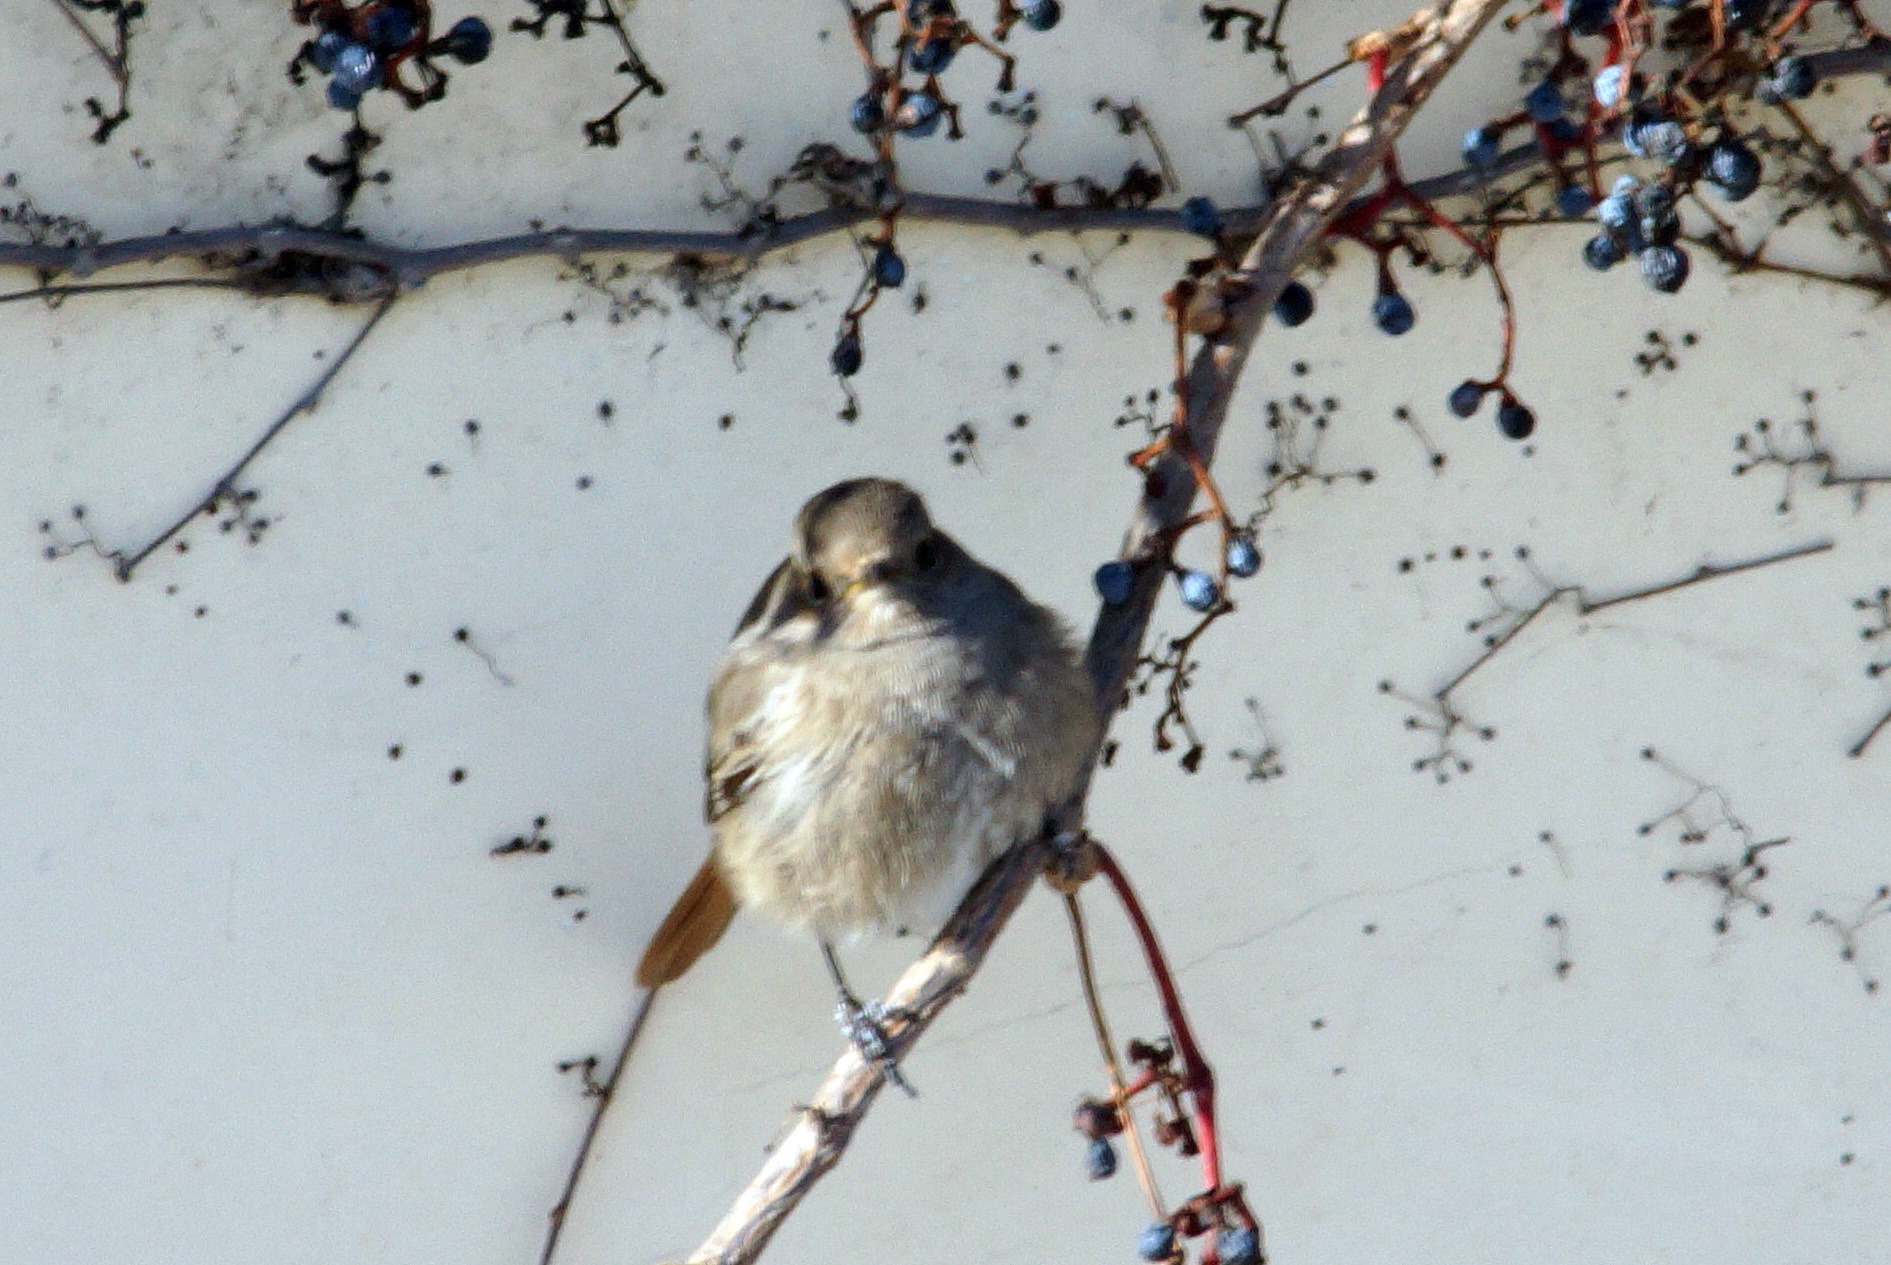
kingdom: Animalia
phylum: Chordata
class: Aves
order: Passeriformes
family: Muscicapidae
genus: Phoenicurus
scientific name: Phoenicurus ochruros
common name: Black redstart
